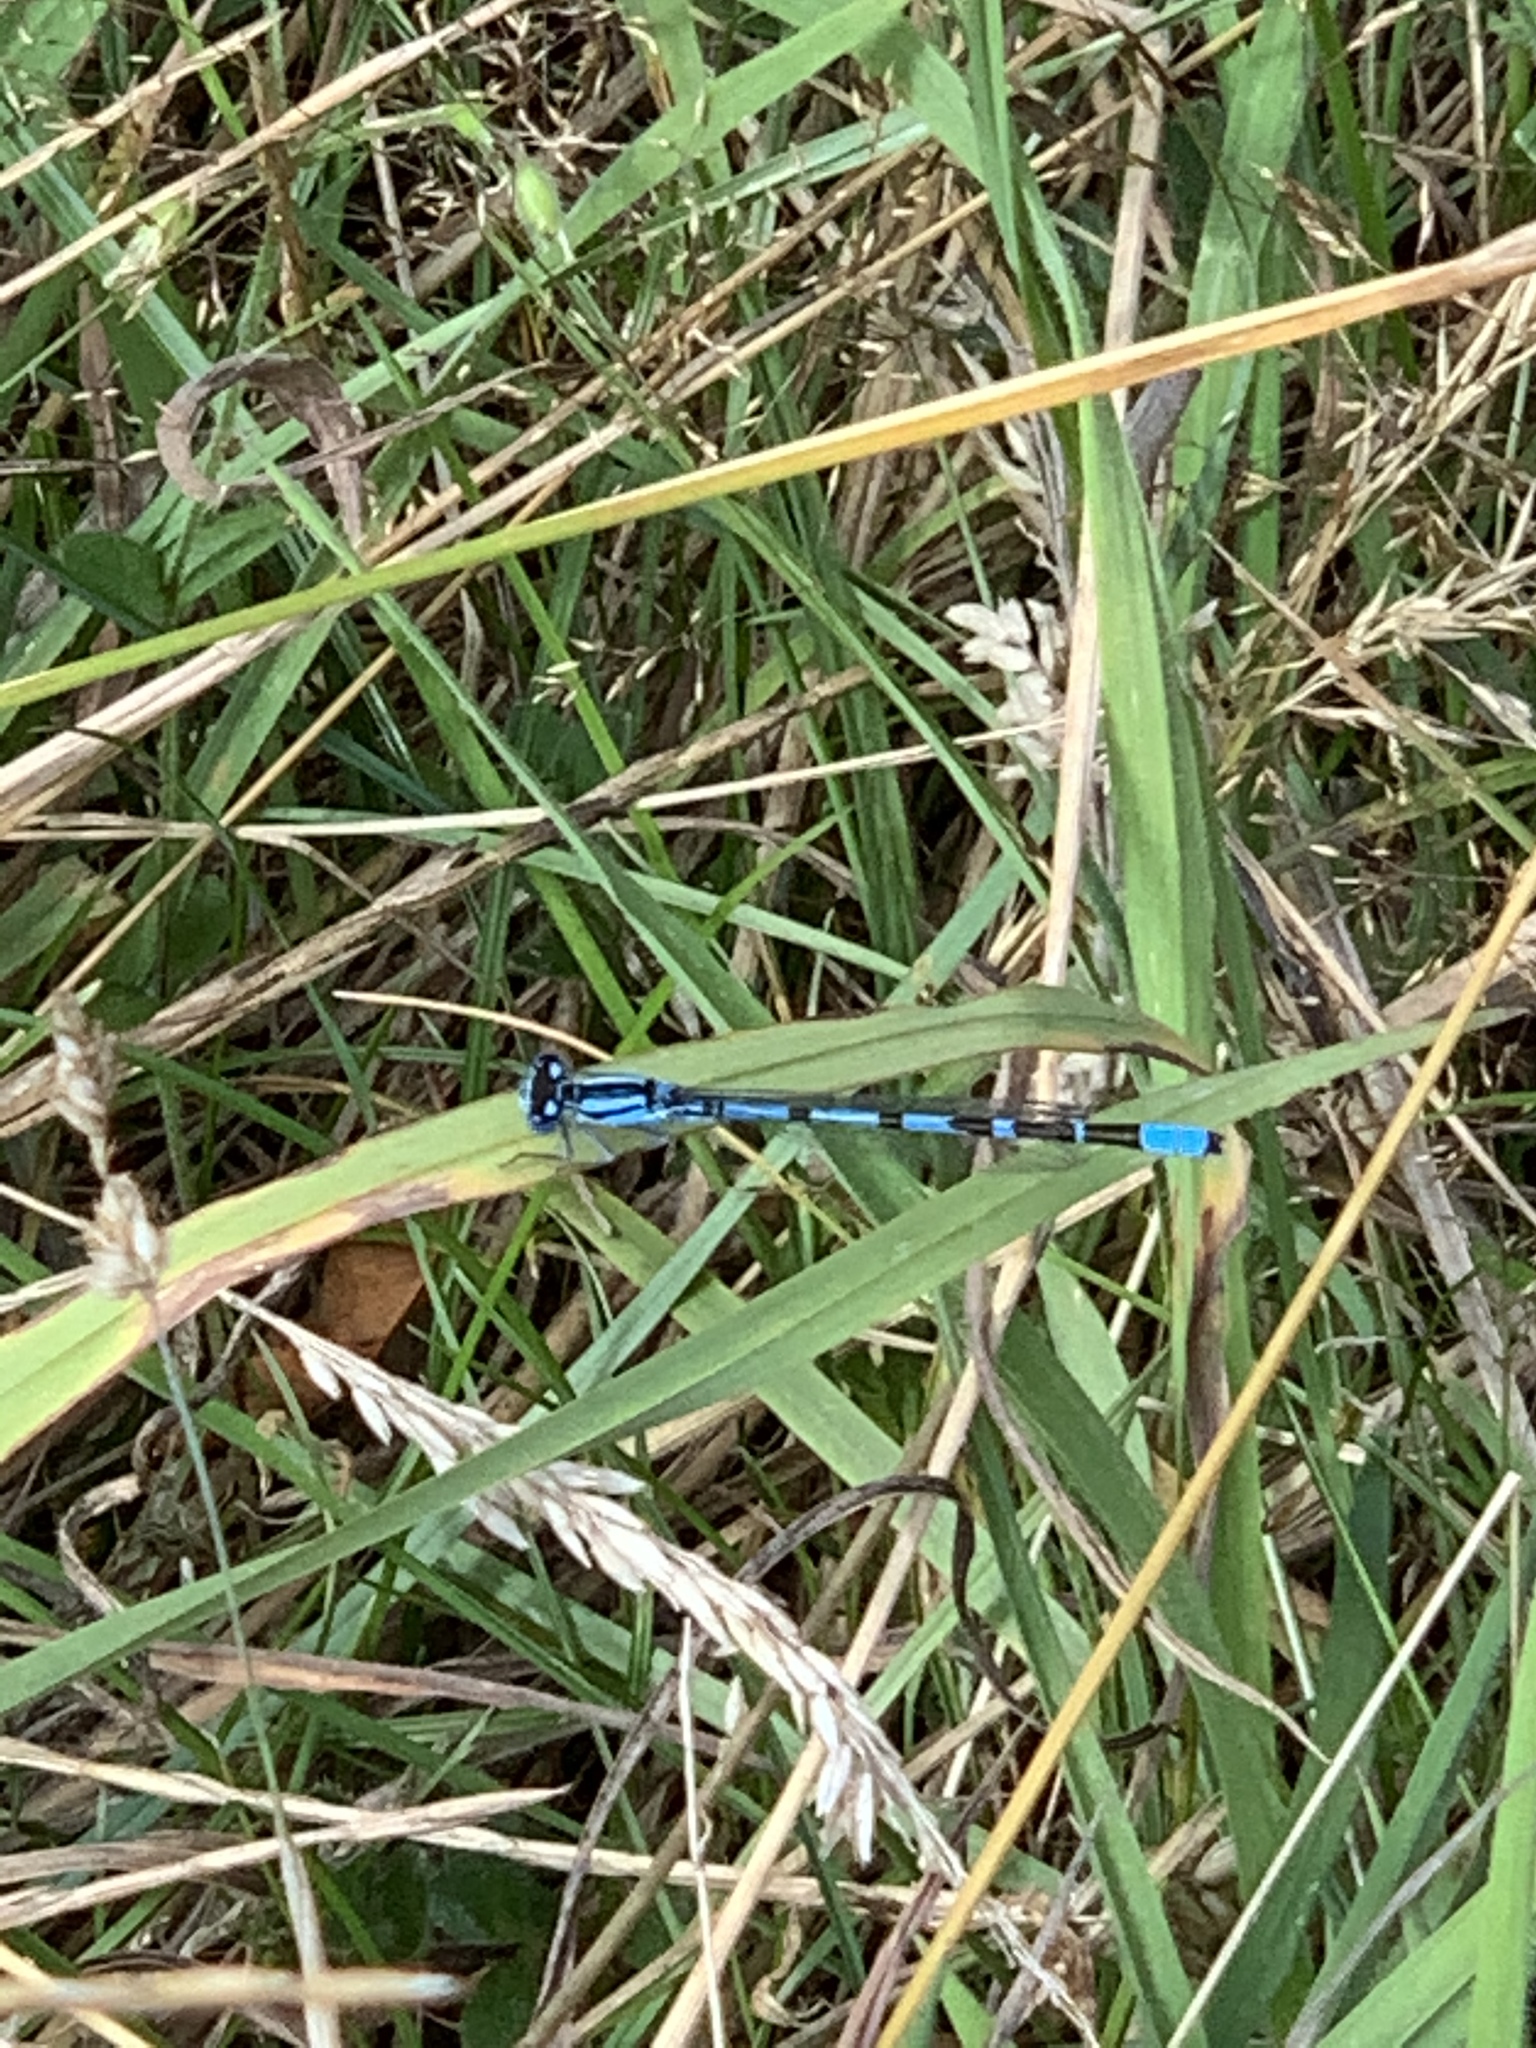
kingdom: Animalia
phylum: Arthropoda
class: Insecta
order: Odonata
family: Coenagrionidae
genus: Enallagma
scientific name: Enallagma cyathigerum
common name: Common blue damselfly
